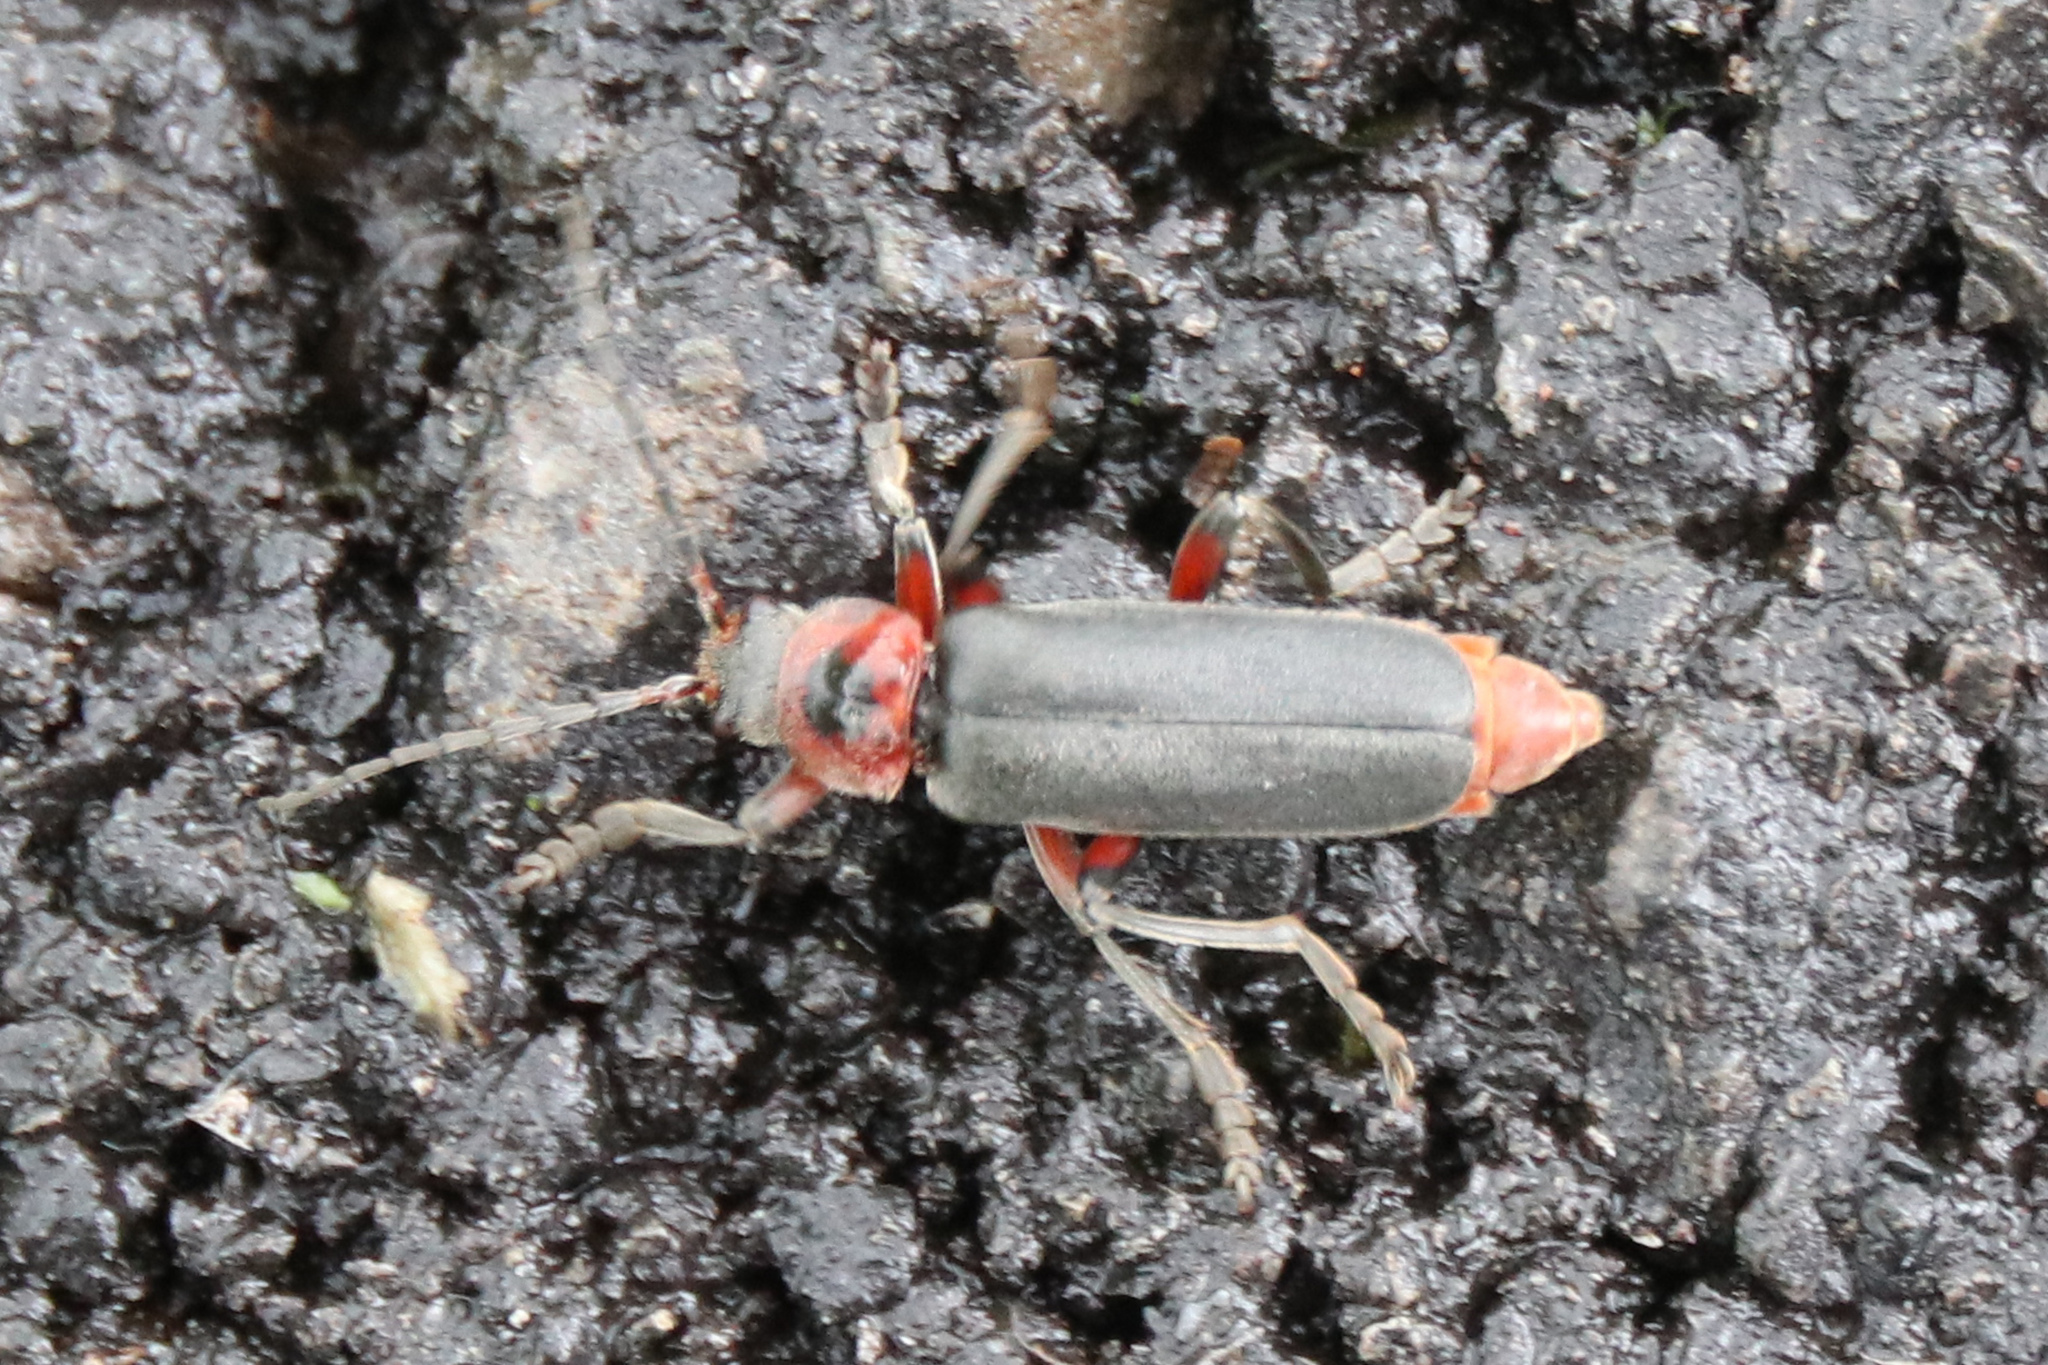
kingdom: Animalia
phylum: Arthropoda
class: Insecta
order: Coleoptera
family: Cantharidae
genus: Cantharis
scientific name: Cantharis rustica
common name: Soldier beetle
